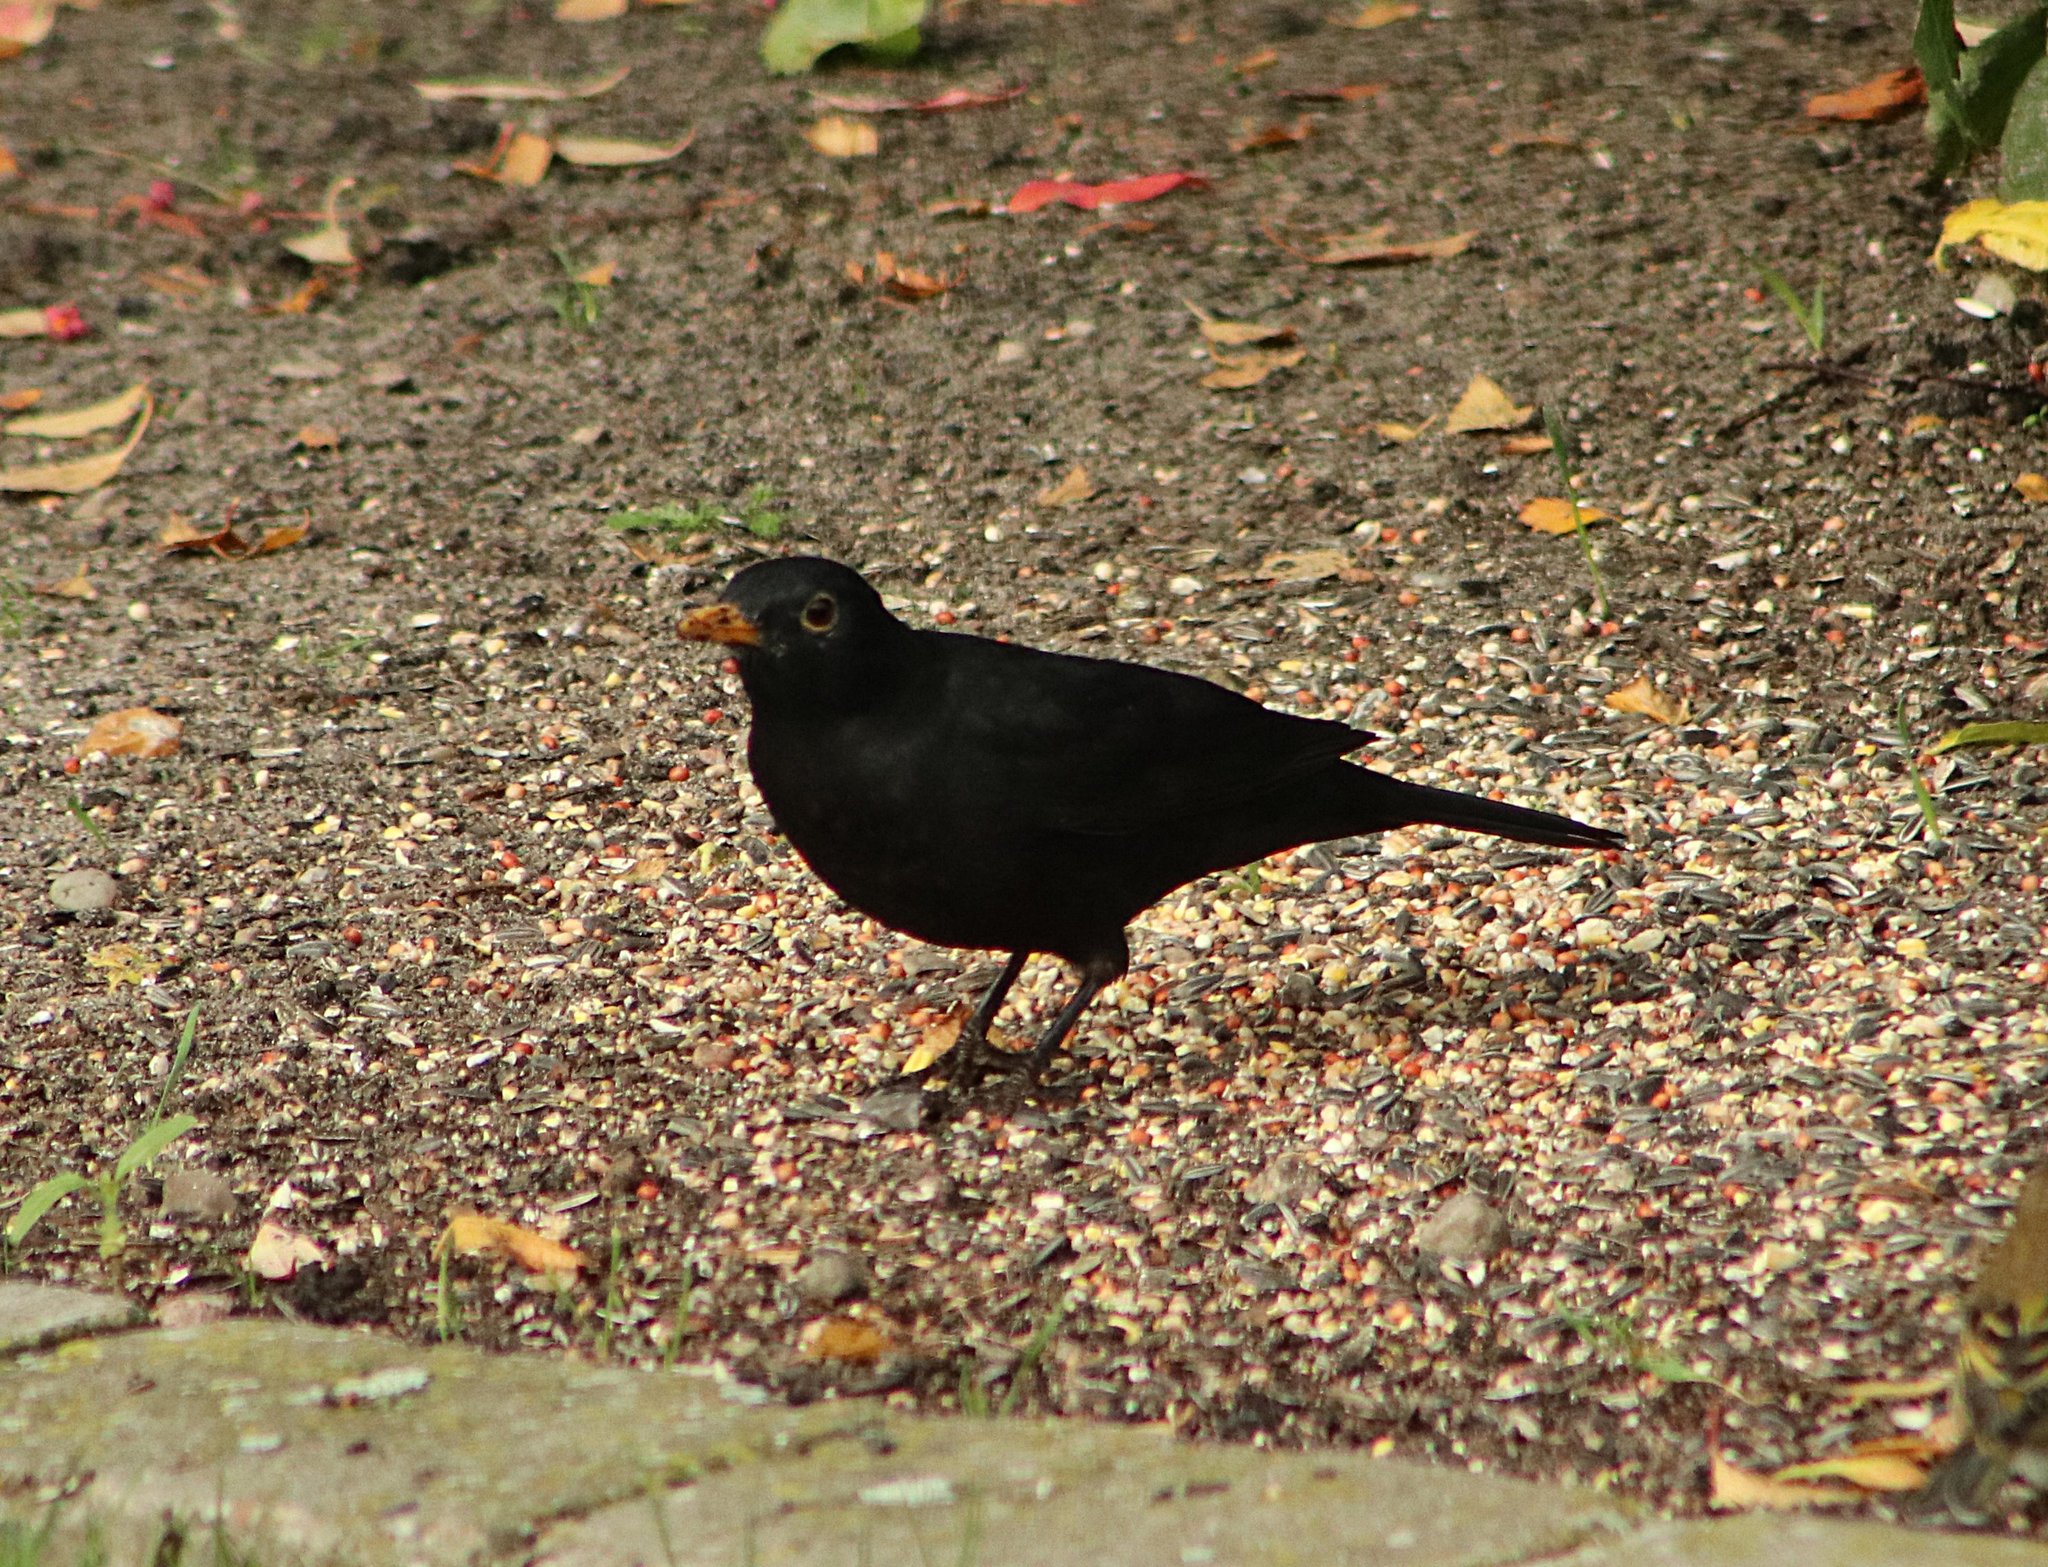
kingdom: Animalia
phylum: Chordata
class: Aves
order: Passeriformes
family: Turdidae
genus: Turdus
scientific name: Turdus merula
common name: Common blackbird
